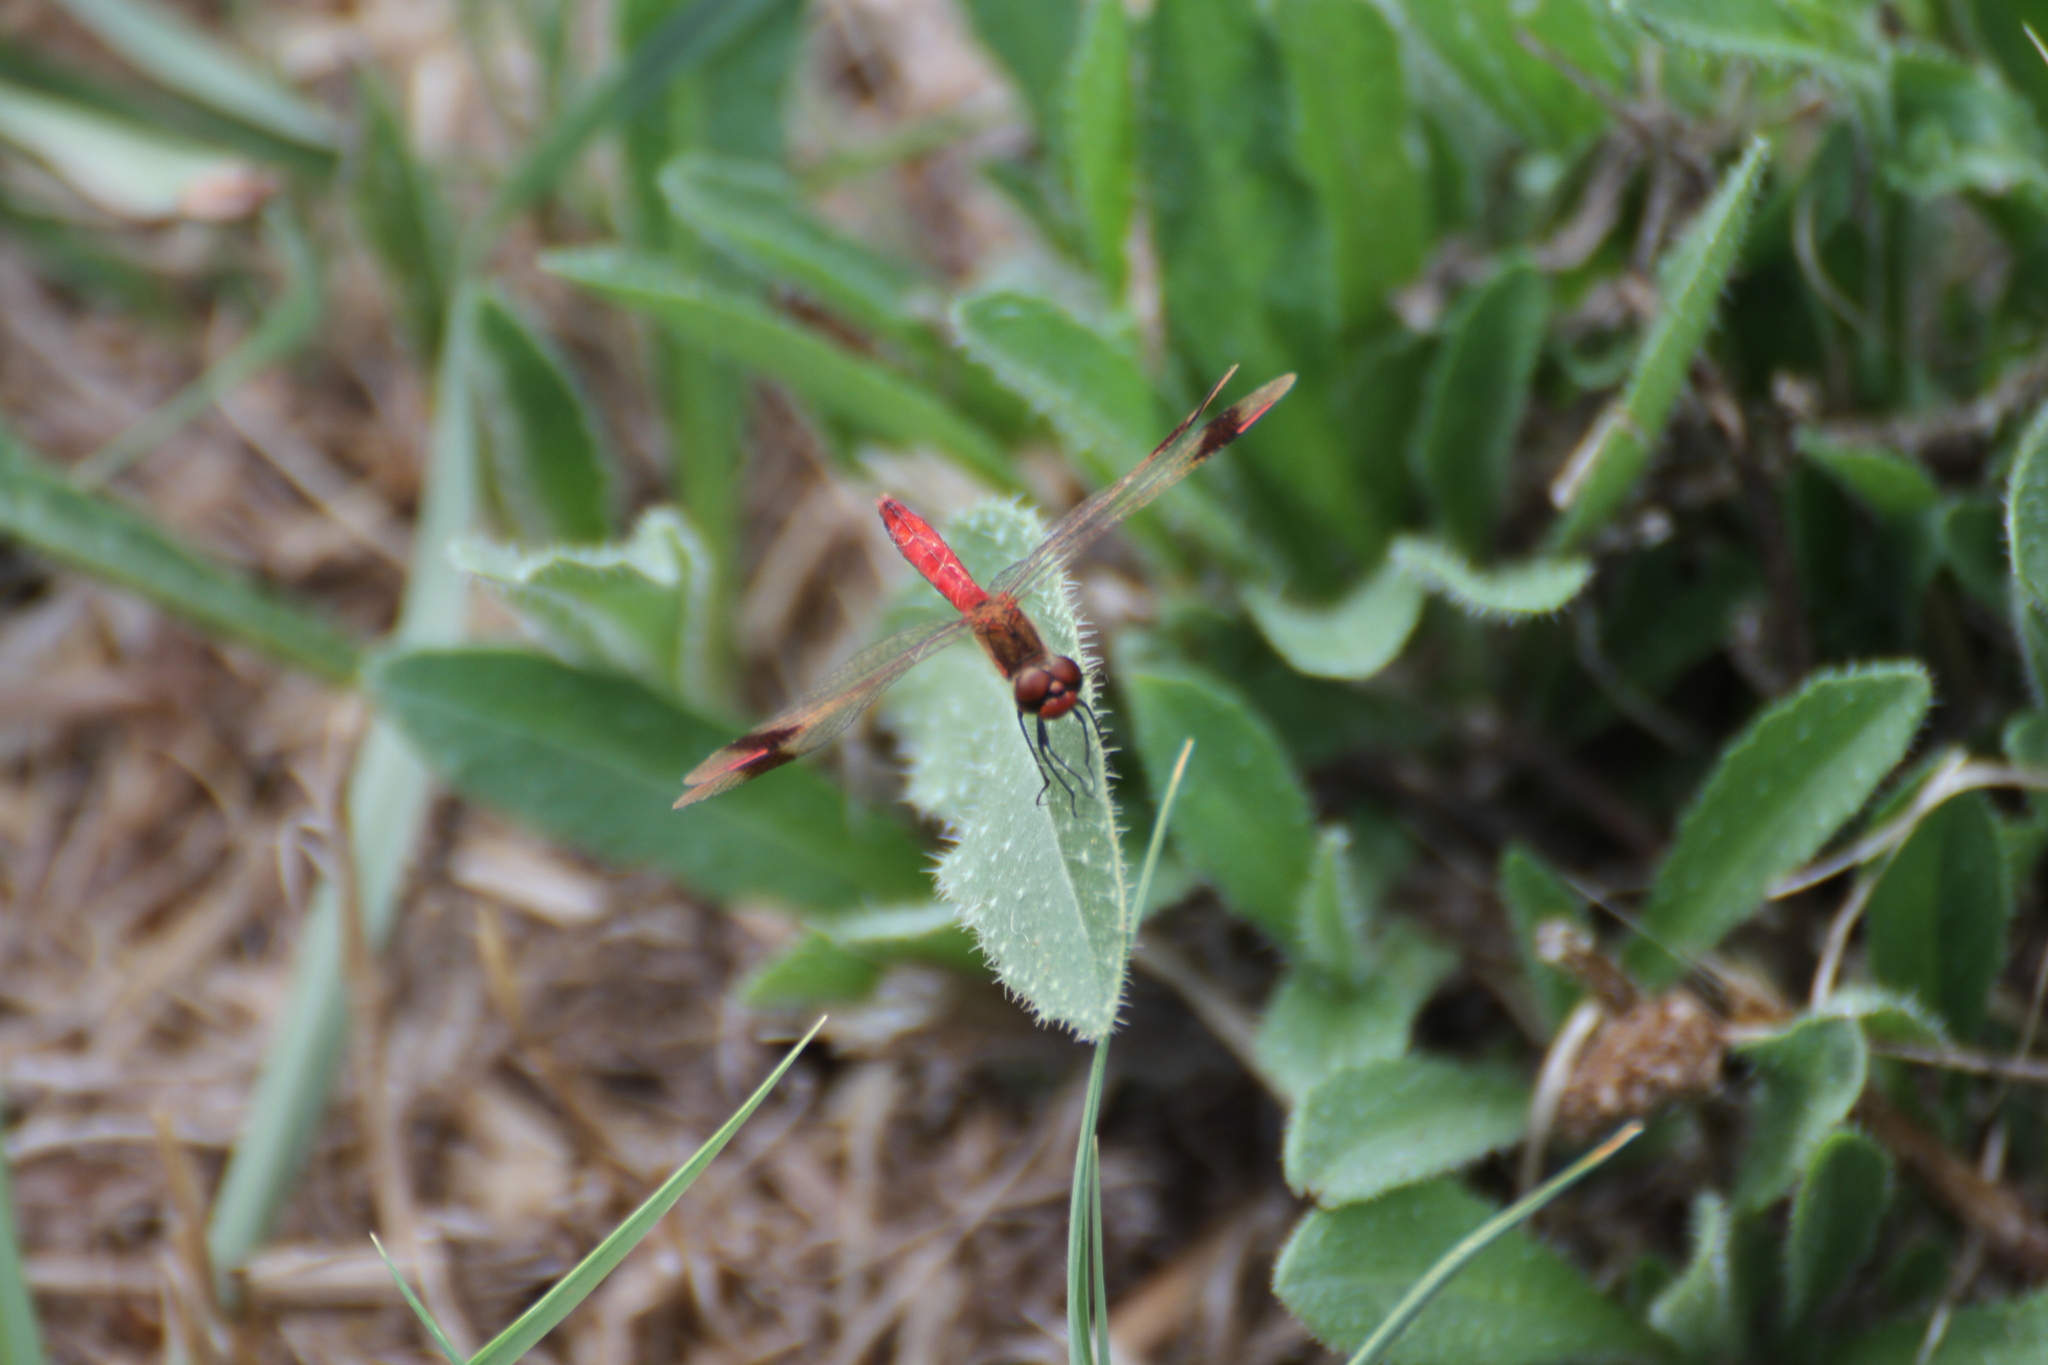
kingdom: Animalia
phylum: Arthropoda
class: Insecta
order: Odonata
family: Libellulidae
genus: Sympetrum
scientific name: Sympetrum pedemontanum
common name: Banded darter
